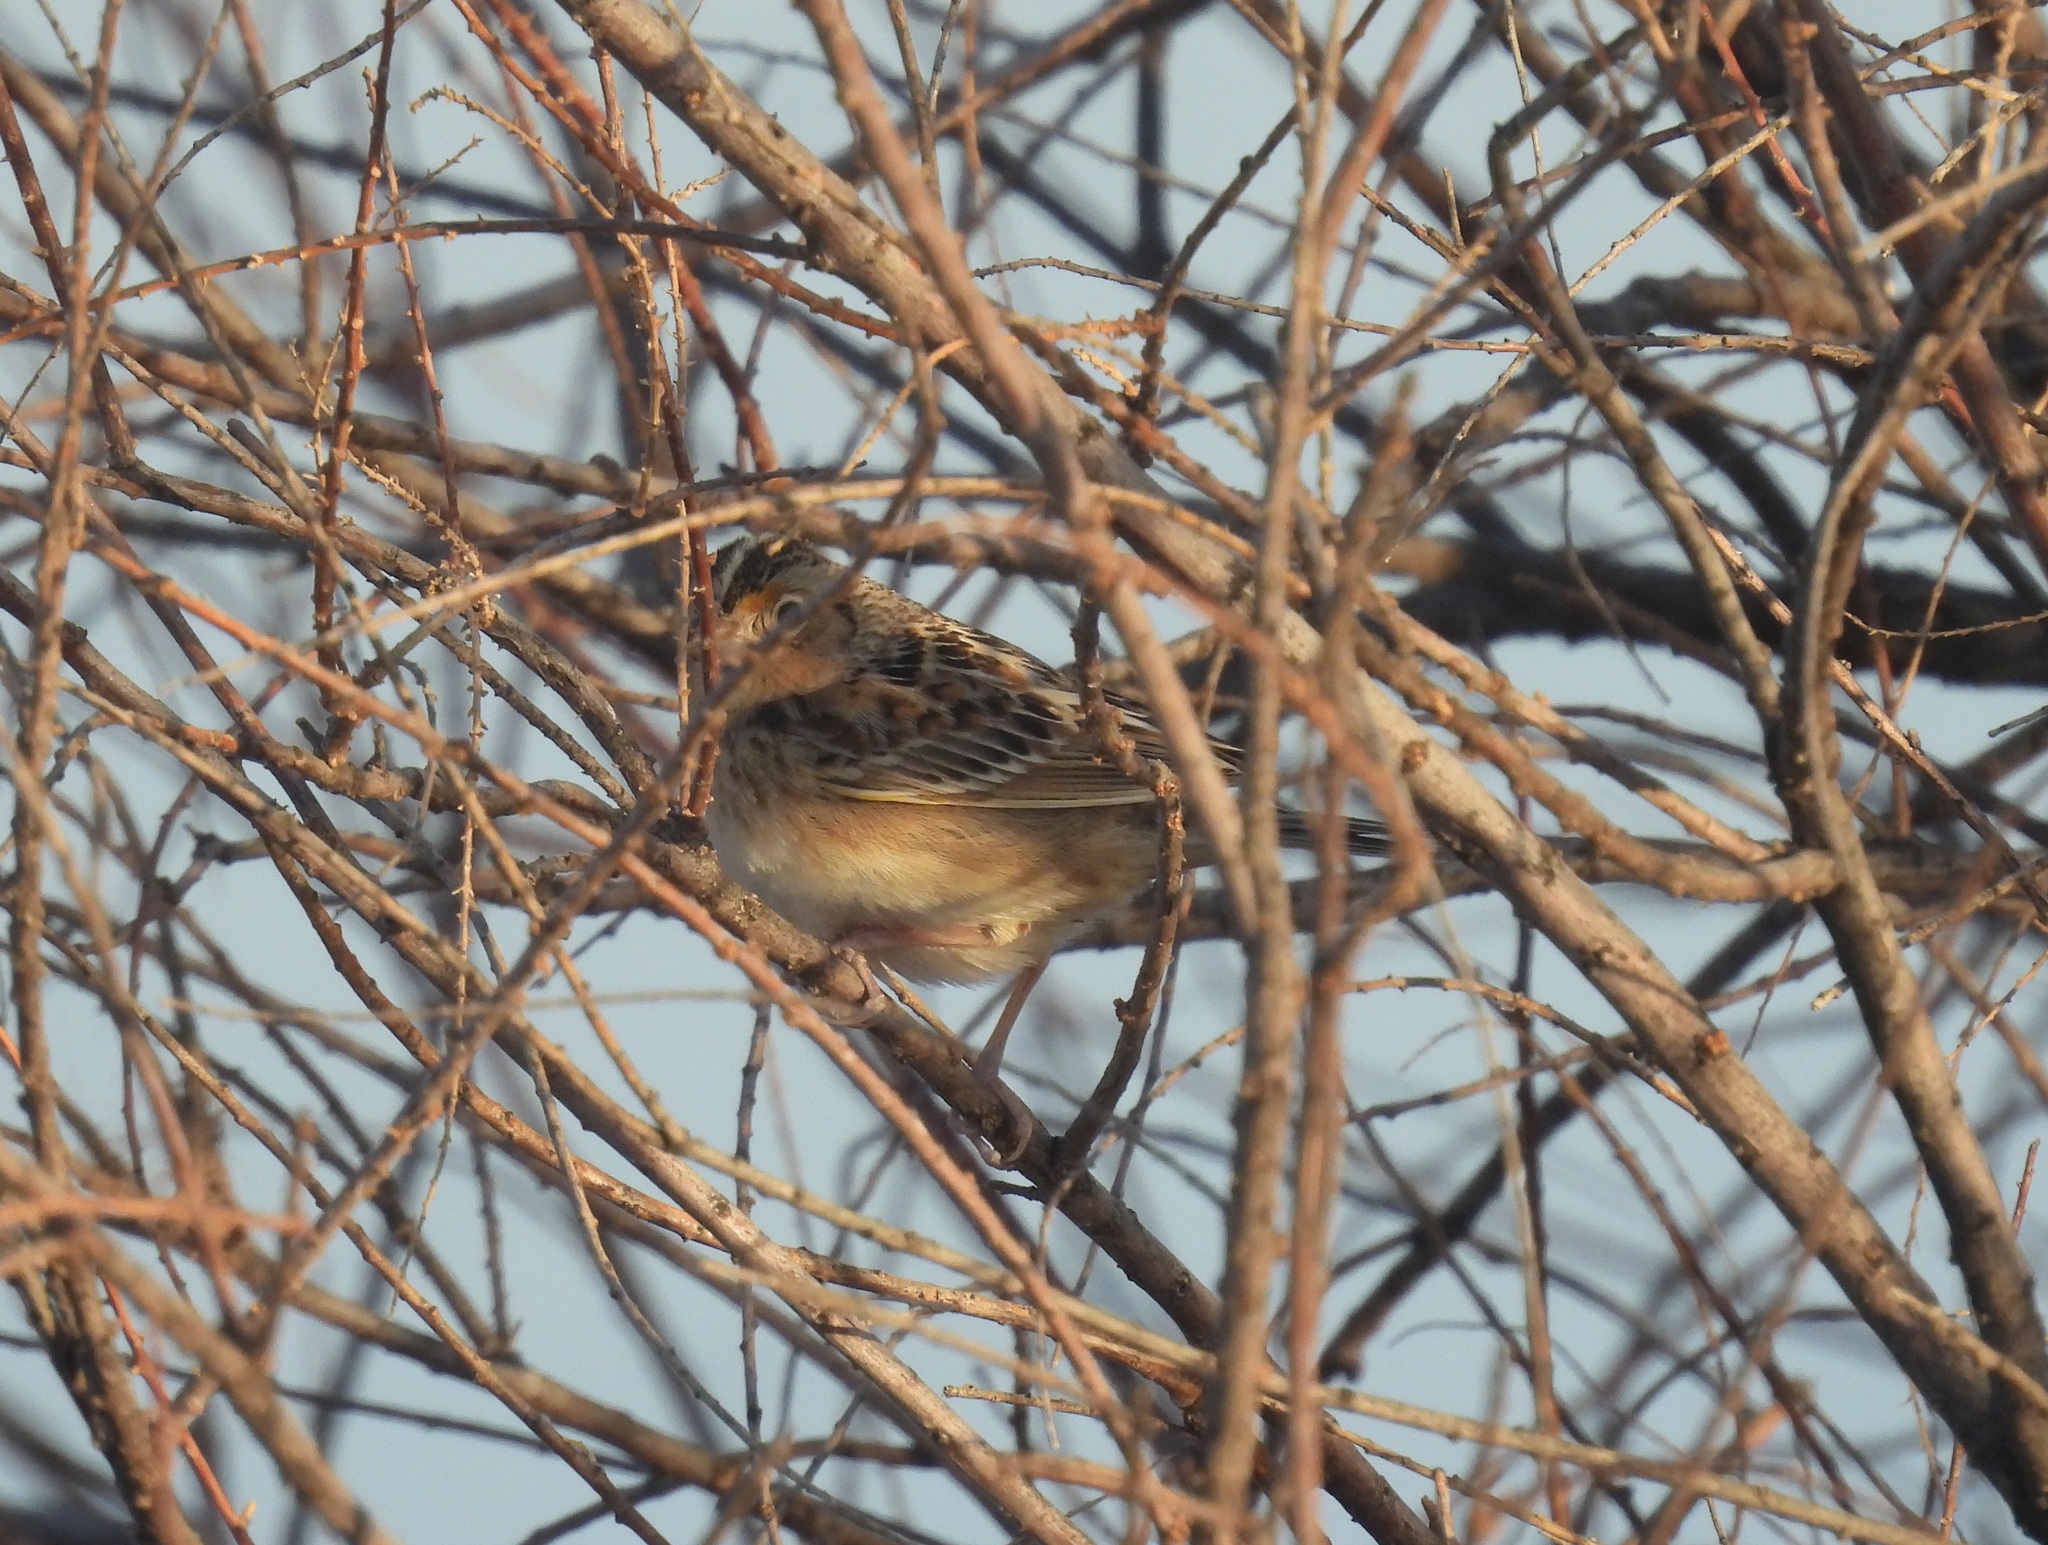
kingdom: Animalia
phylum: Chordata
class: Aves
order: Passeriformes
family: Passerellidae
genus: Ammodramus
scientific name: Ammodramus savannarum
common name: Grasshopper sparrow
